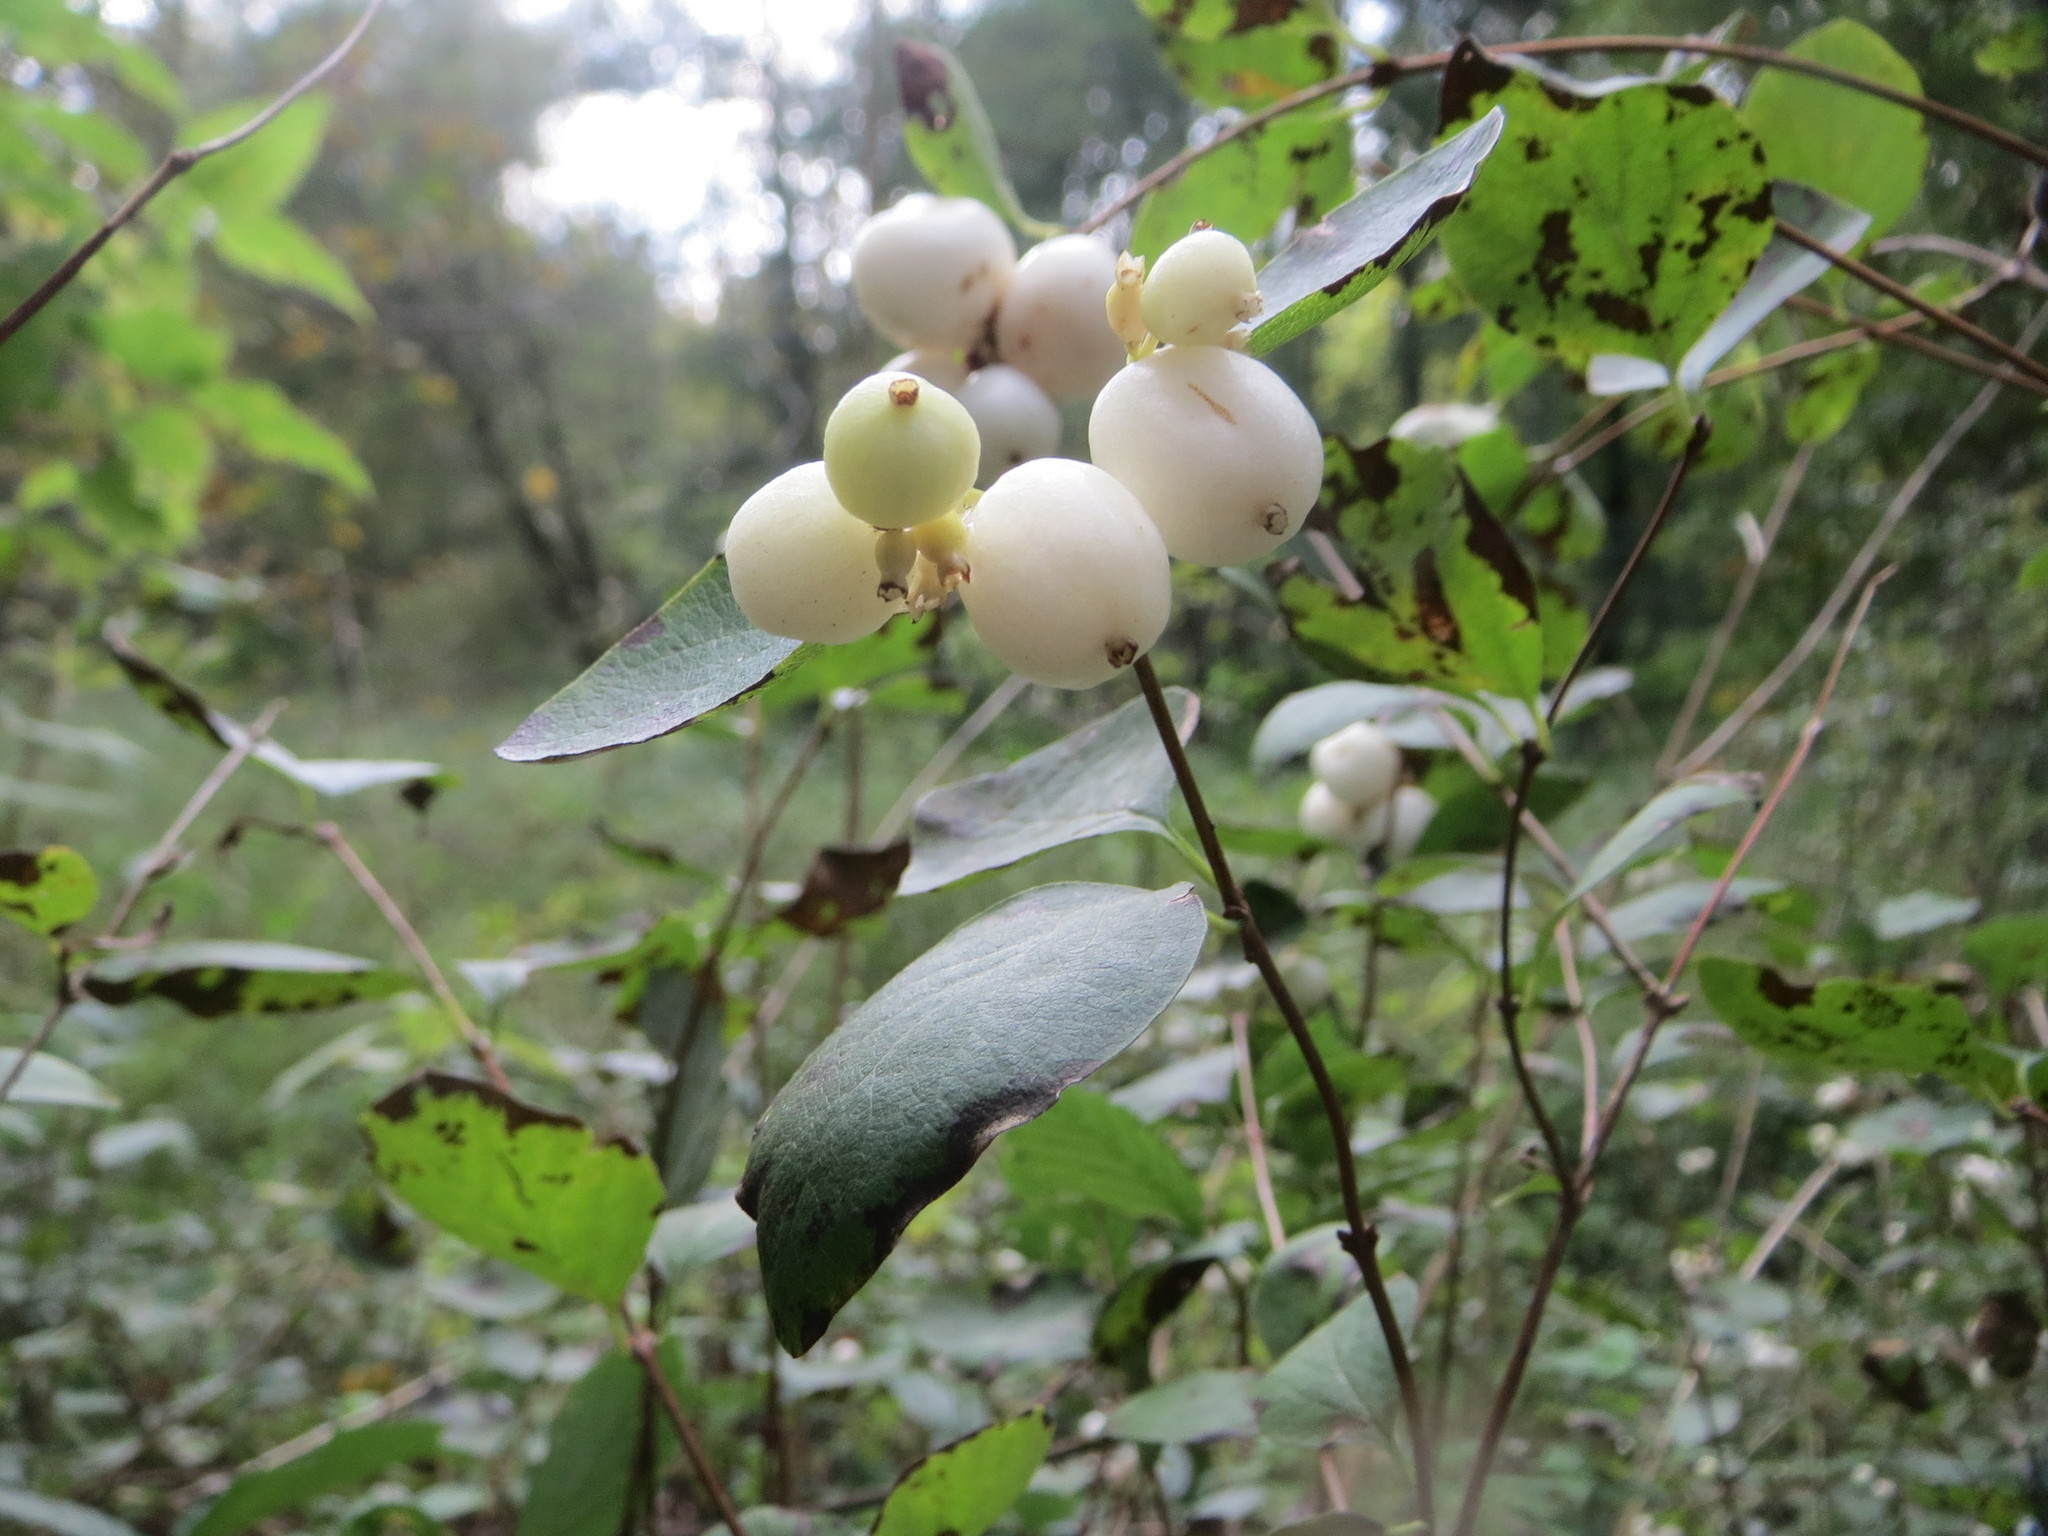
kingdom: Plantae
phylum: Tracheophyta
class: Magnoliopsida
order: Dipsacales
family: Caprifoliaceae
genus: Symphoricarpos
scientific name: Symphoricarpos albus
